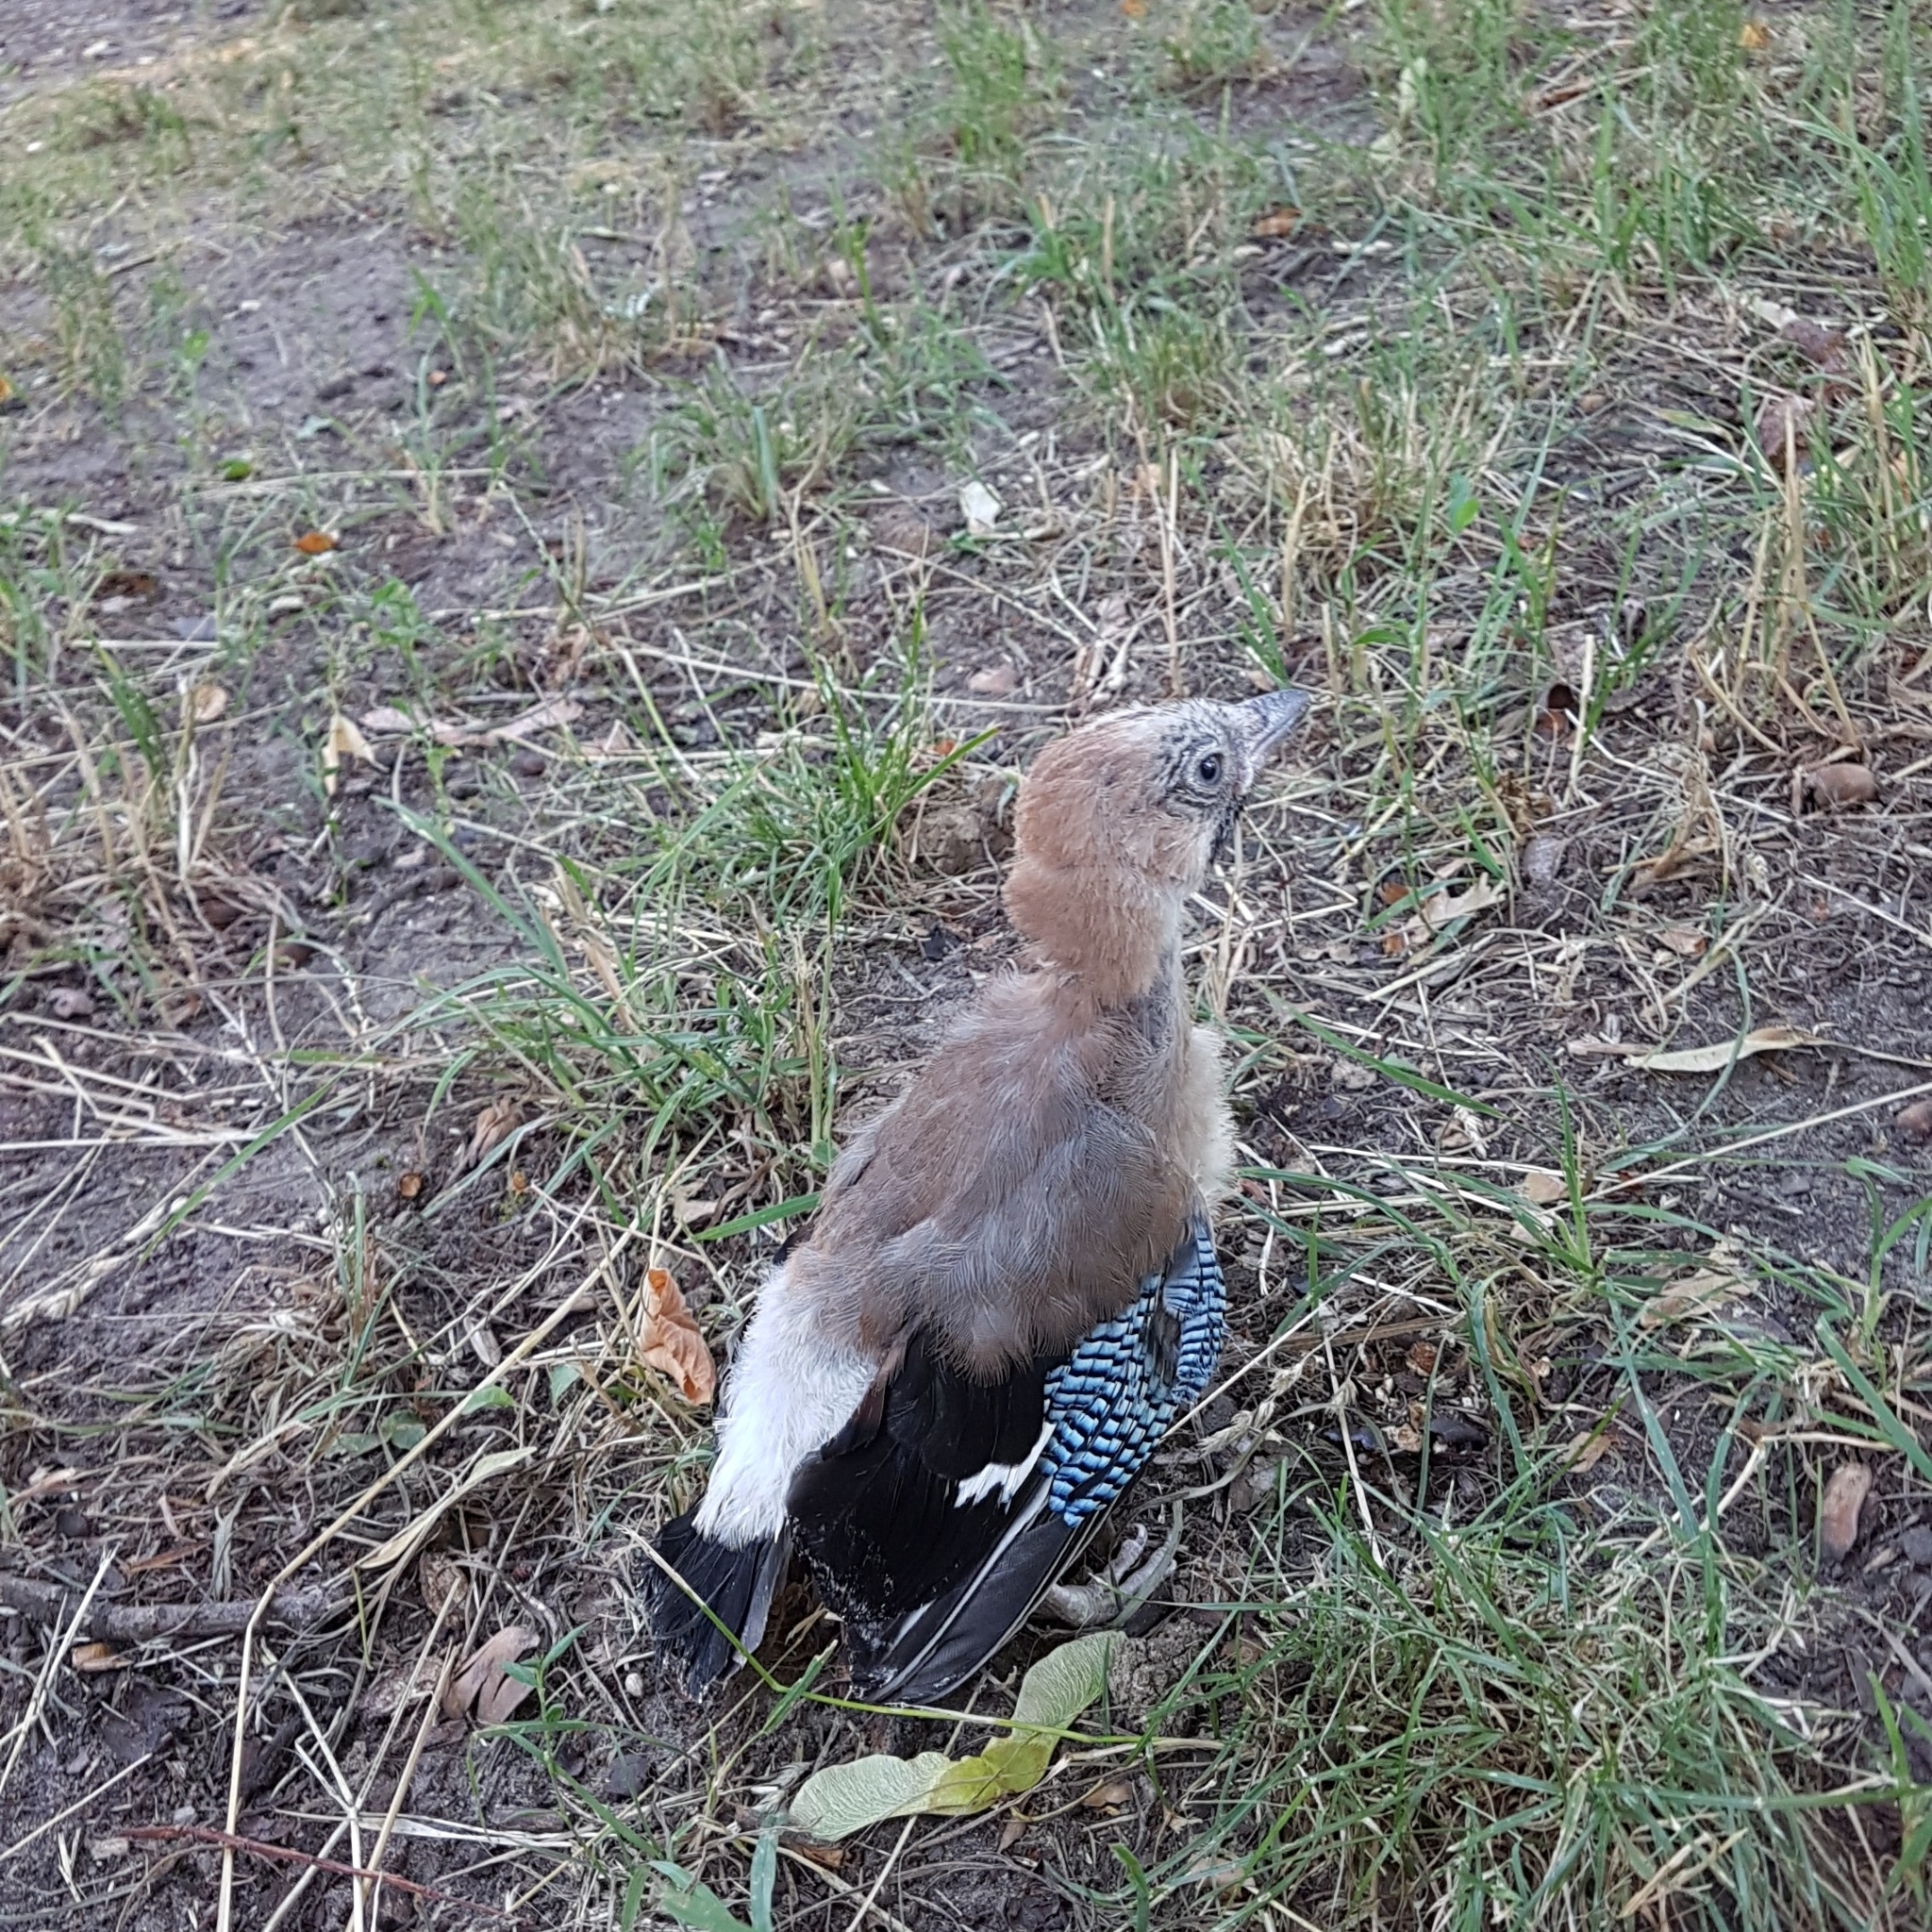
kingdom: Animalia
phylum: Chordata
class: Aves
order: Passeriformes
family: Corvidae
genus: Garrulus
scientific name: Garrulus glandarius
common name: Eurasian jay
